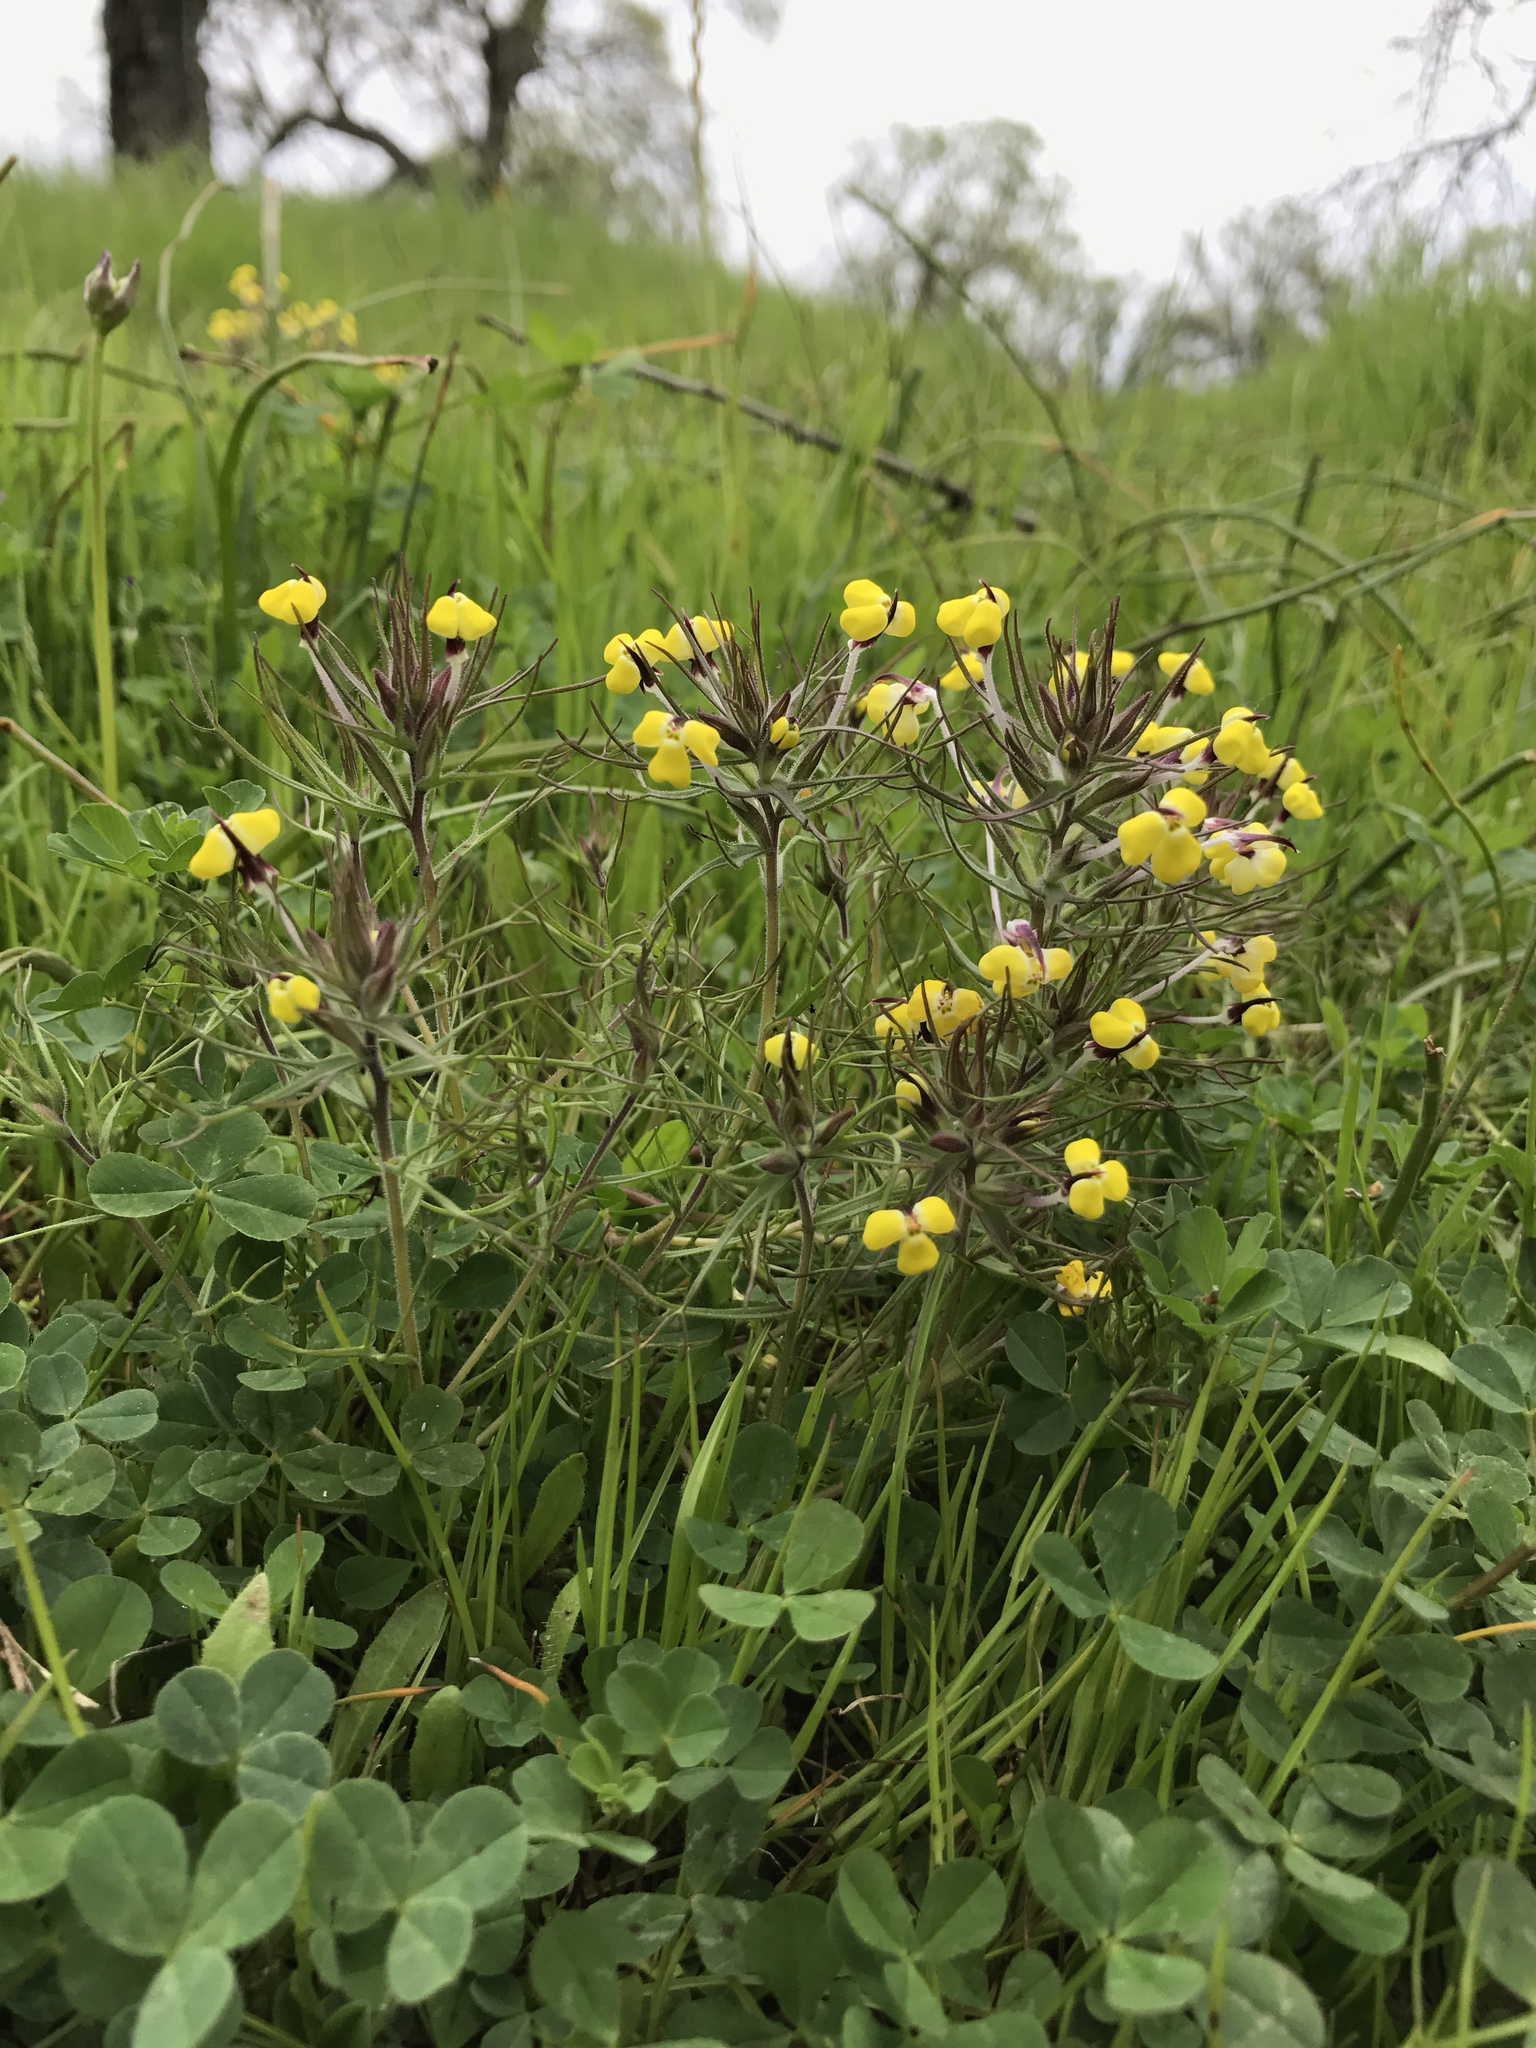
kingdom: Plantae
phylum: Tracheophyta
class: Magnoliopsida
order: Lamiales
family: Orobanchaceae
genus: Triphysaria
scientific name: Triphysaria eriantha
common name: Johnny-tuck
